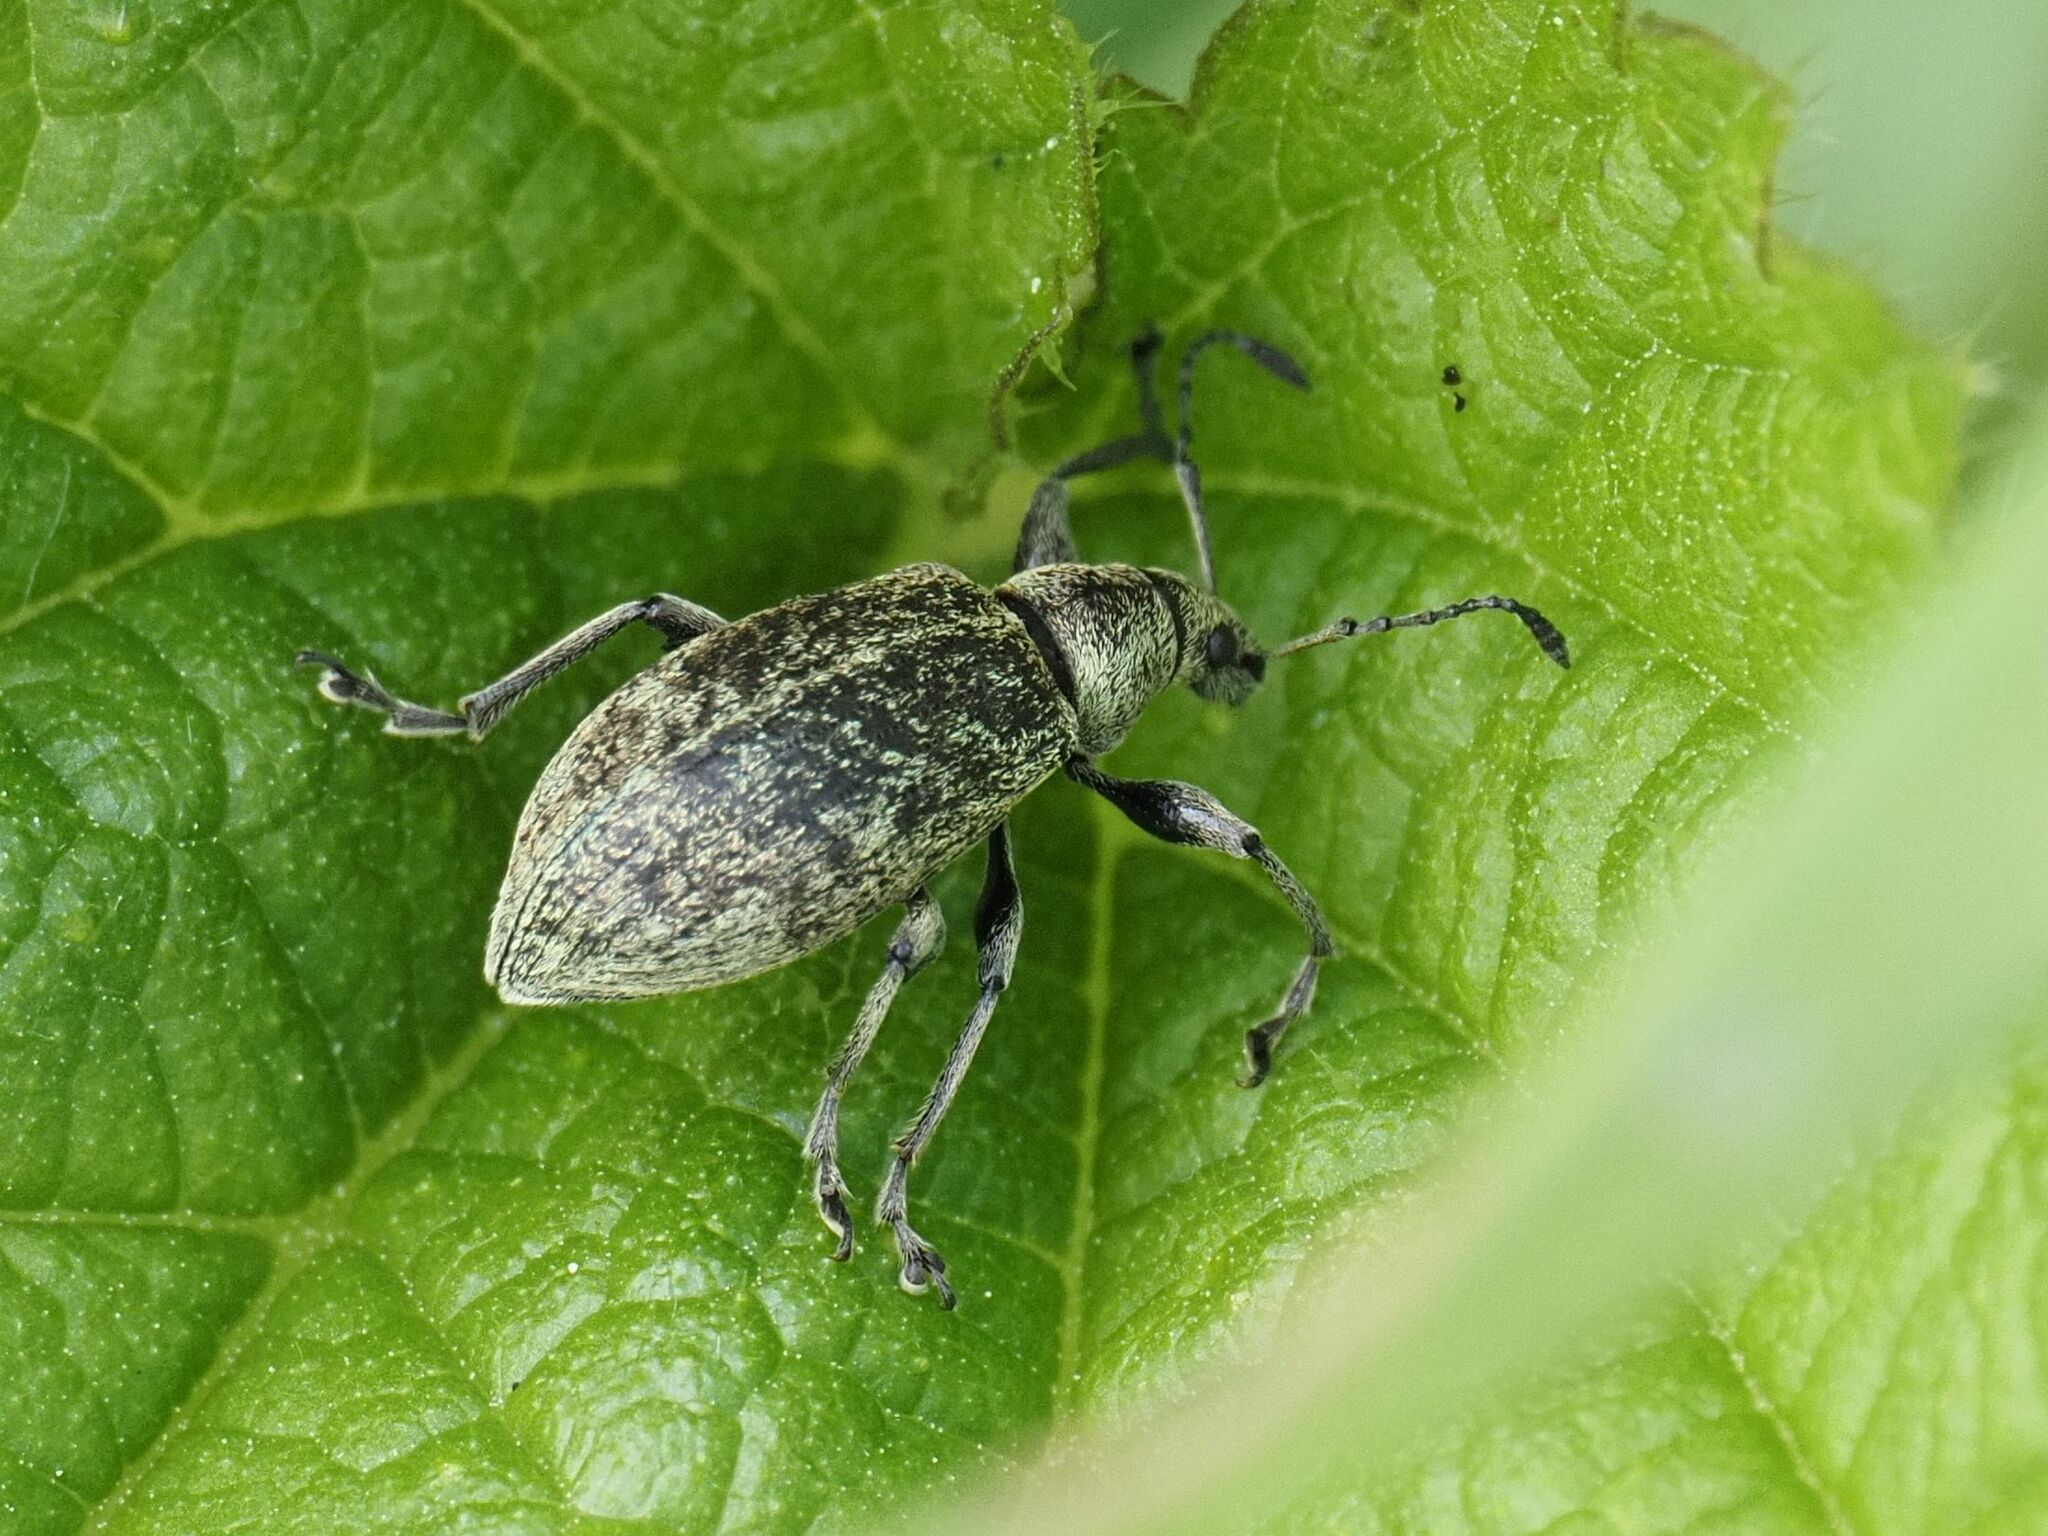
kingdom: Animalia
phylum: Arthropoda
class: Insecta
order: Coleoptera
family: Curculionidae
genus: Phyllobius
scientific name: Phyllobius pomaceus
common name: Green nettle weevil
